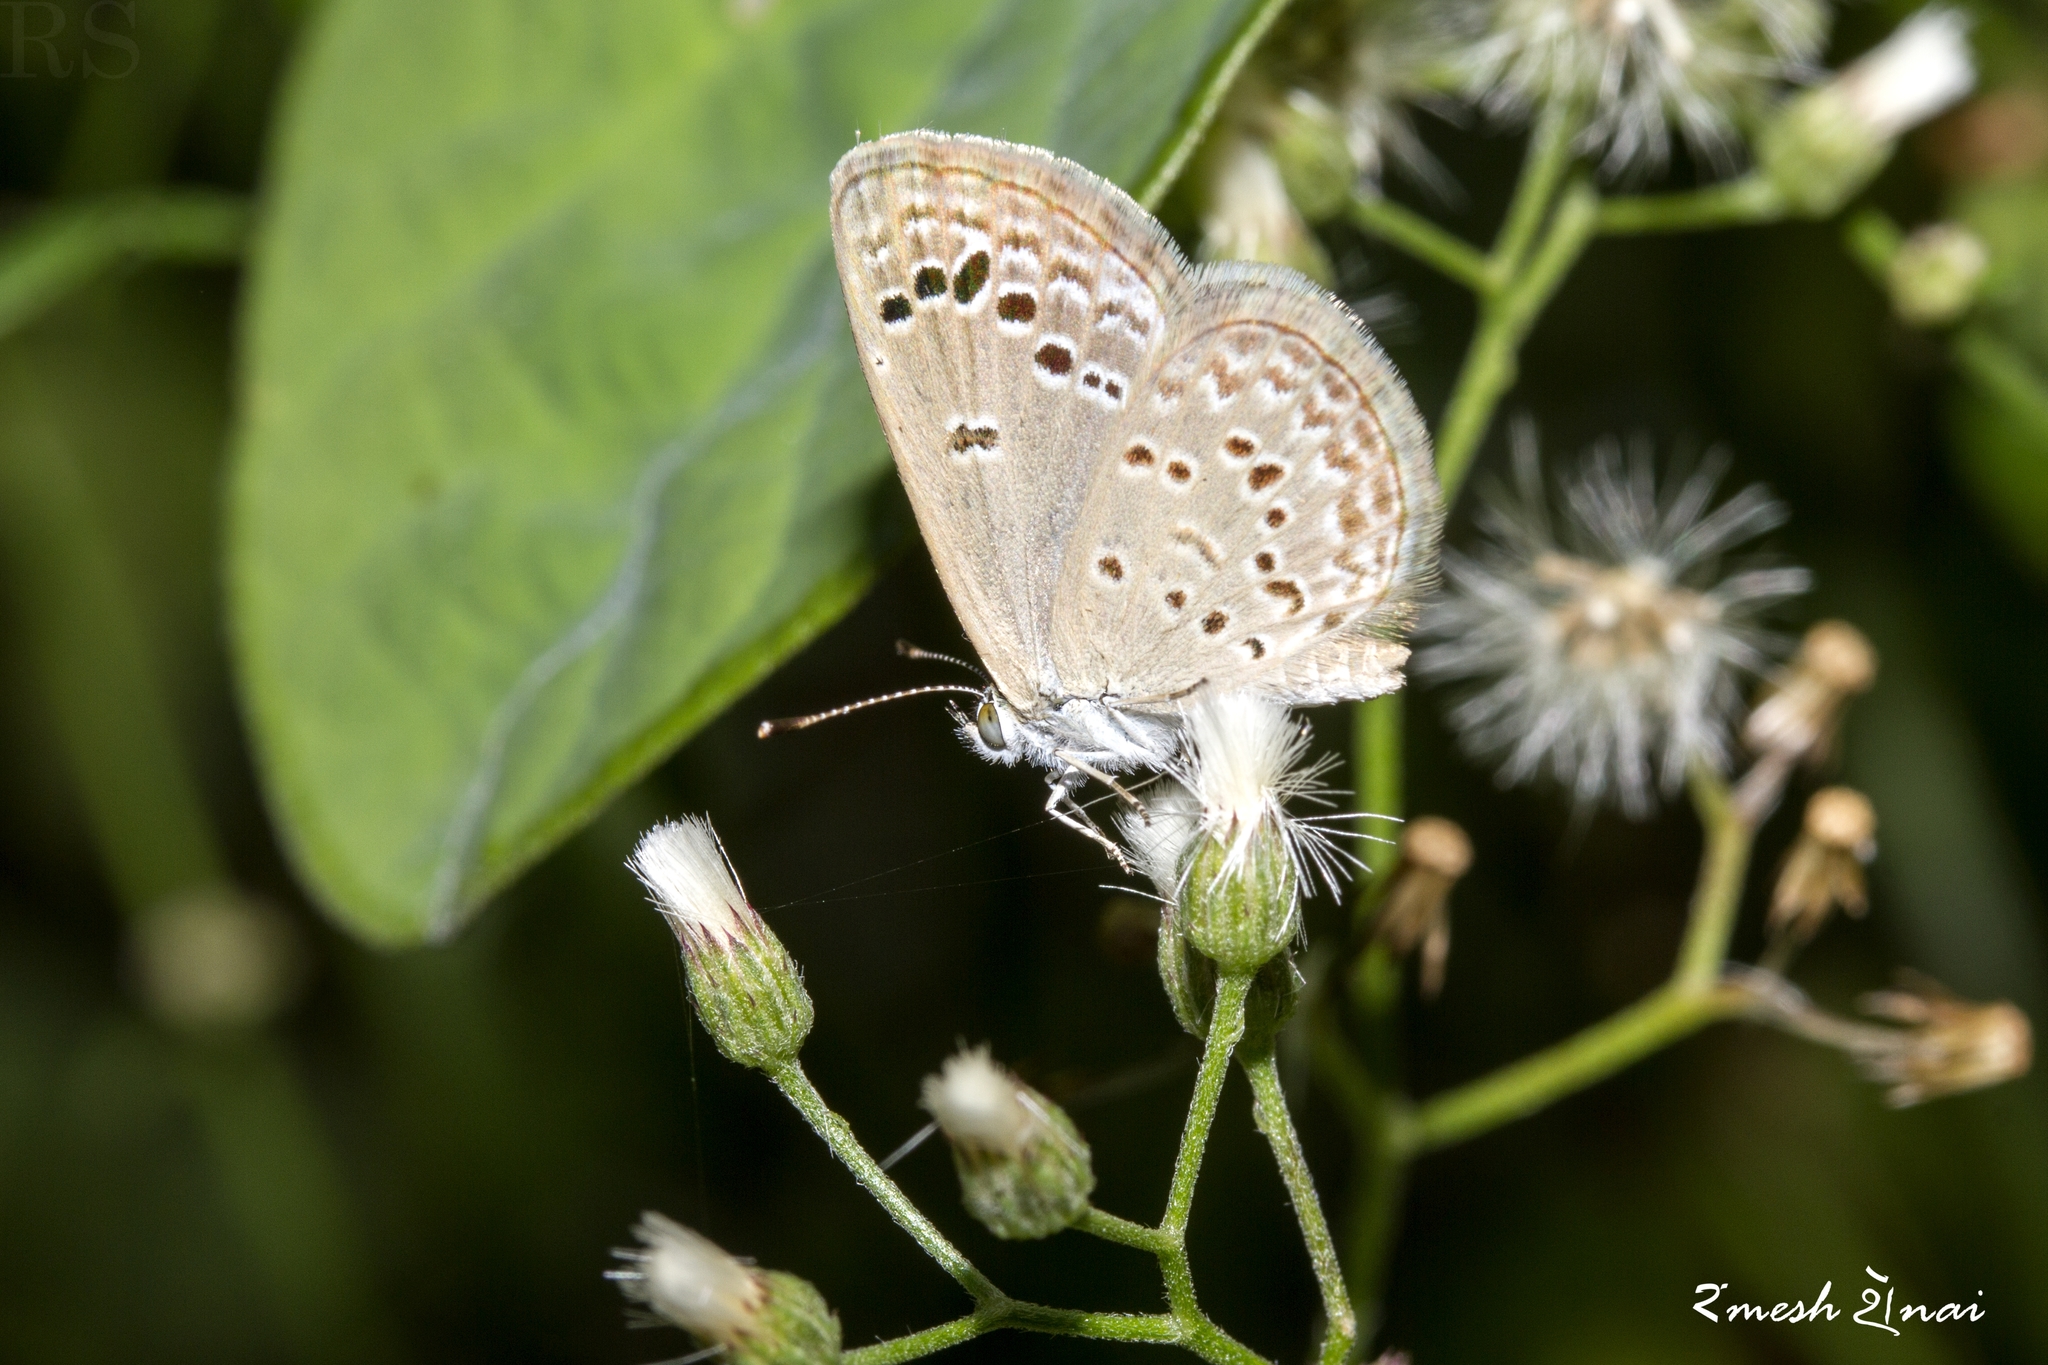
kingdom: Animalia
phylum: Arthropoda
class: Insecta
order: Lepidoptera
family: Lycaenidae
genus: Zizina
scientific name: Zizina otis
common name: Lesser grass blue
